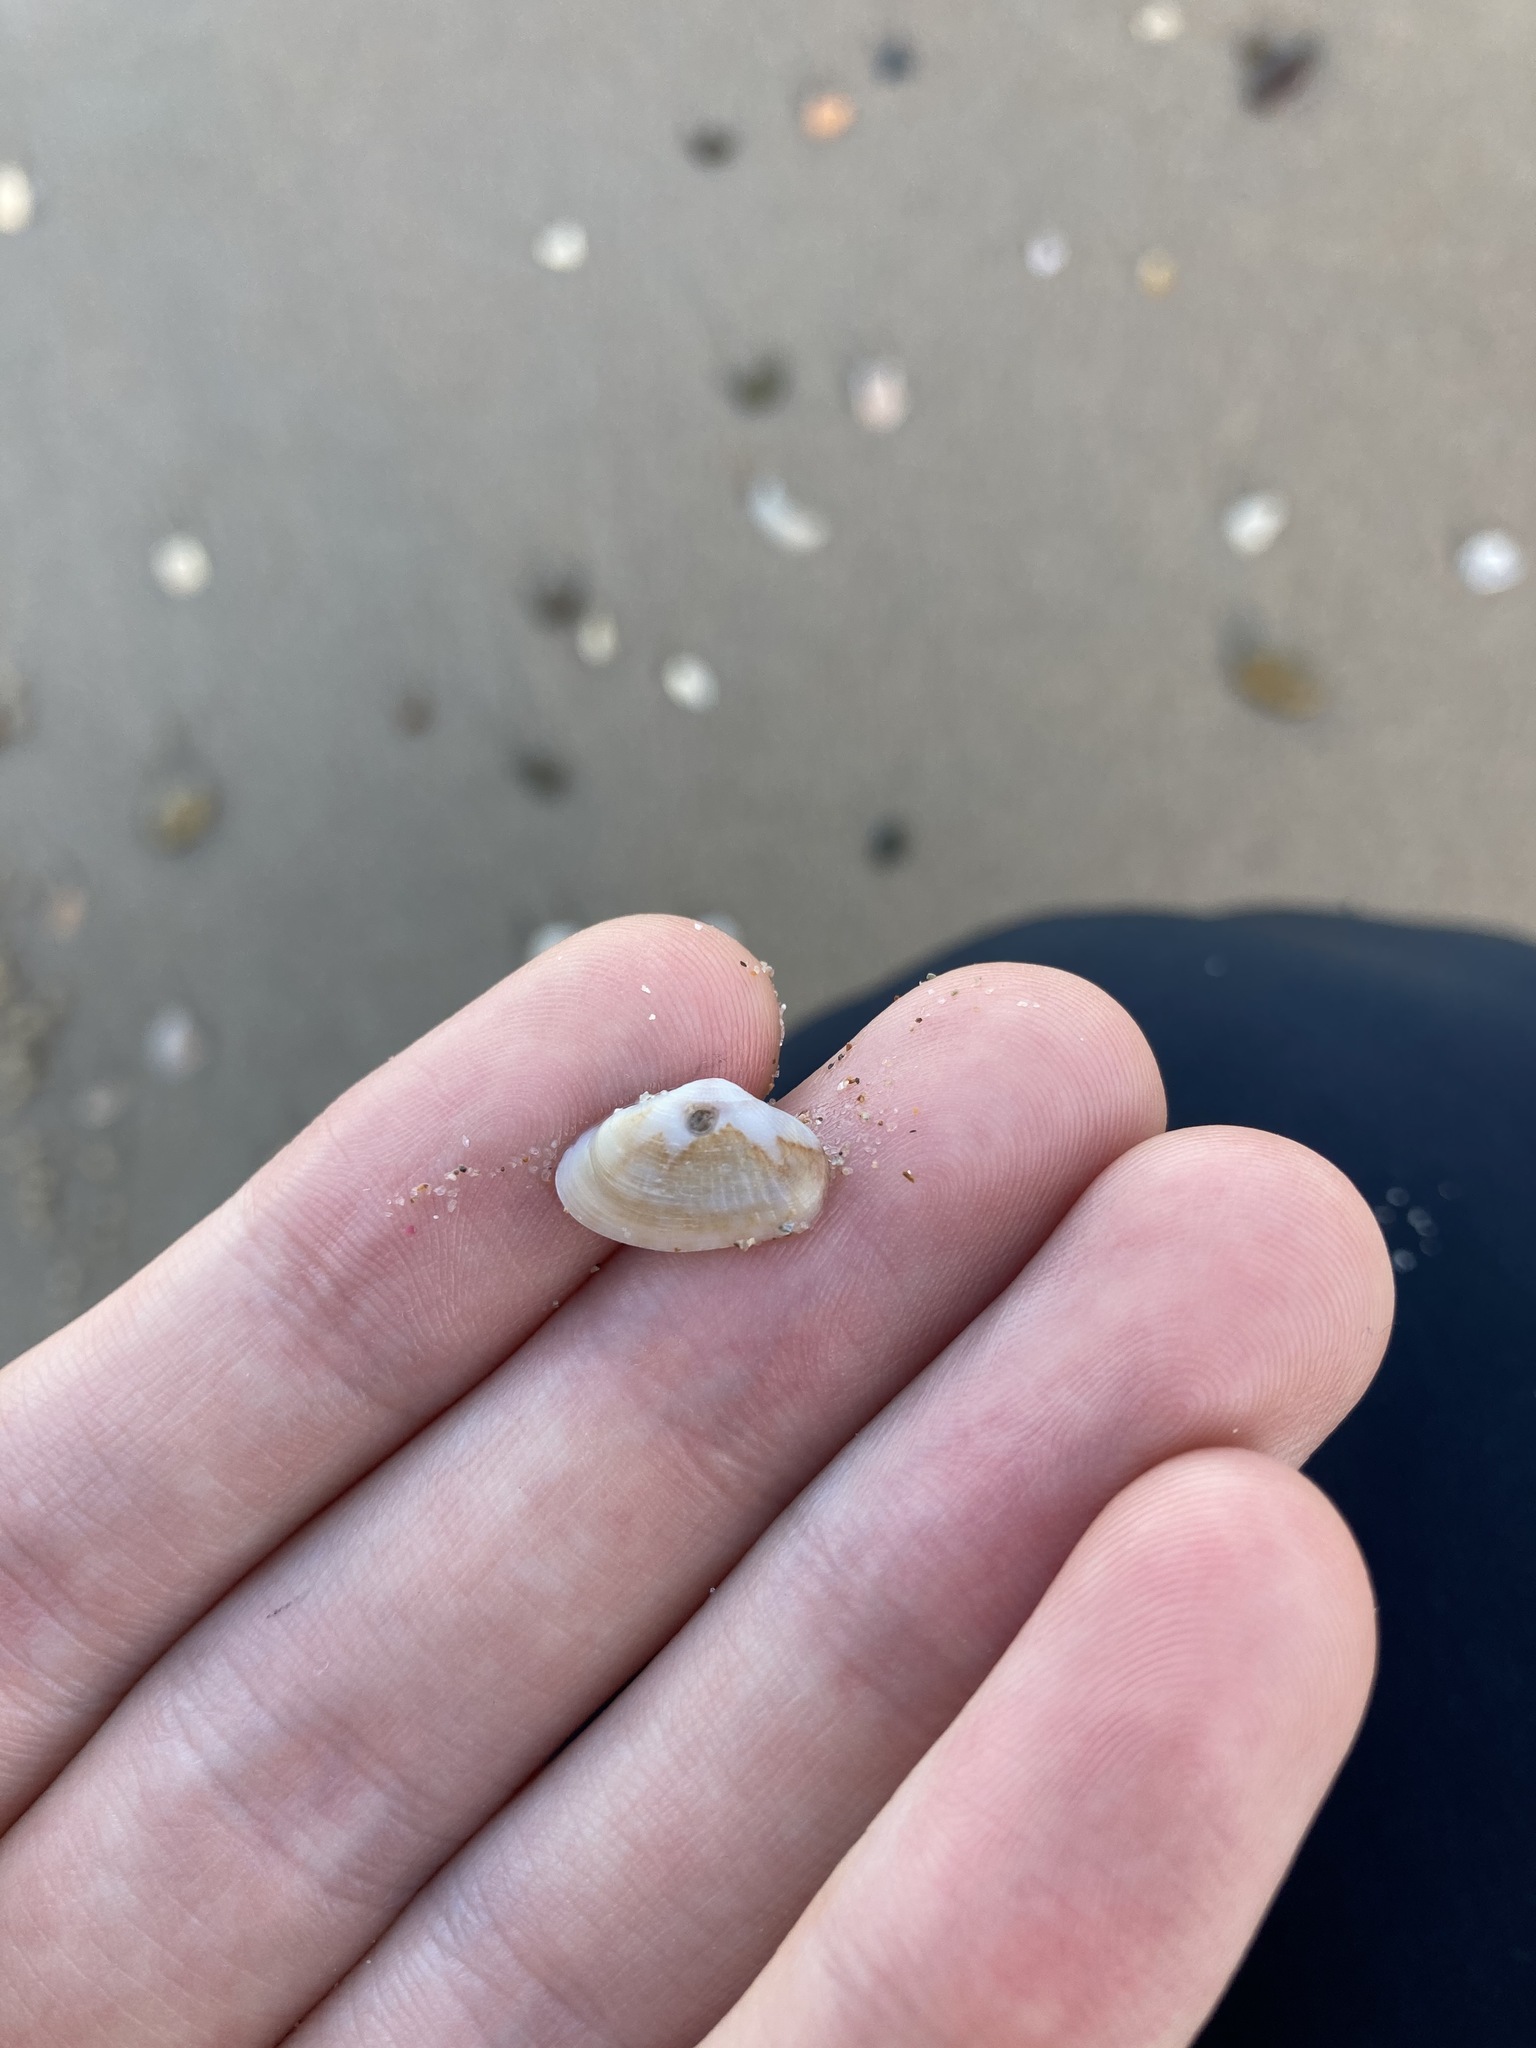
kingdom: Animalia
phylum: Mollusca
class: Bivalvia
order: Venerida
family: Hemidonacidae
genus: Hemidonax
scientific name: Hemidonax dactylus
